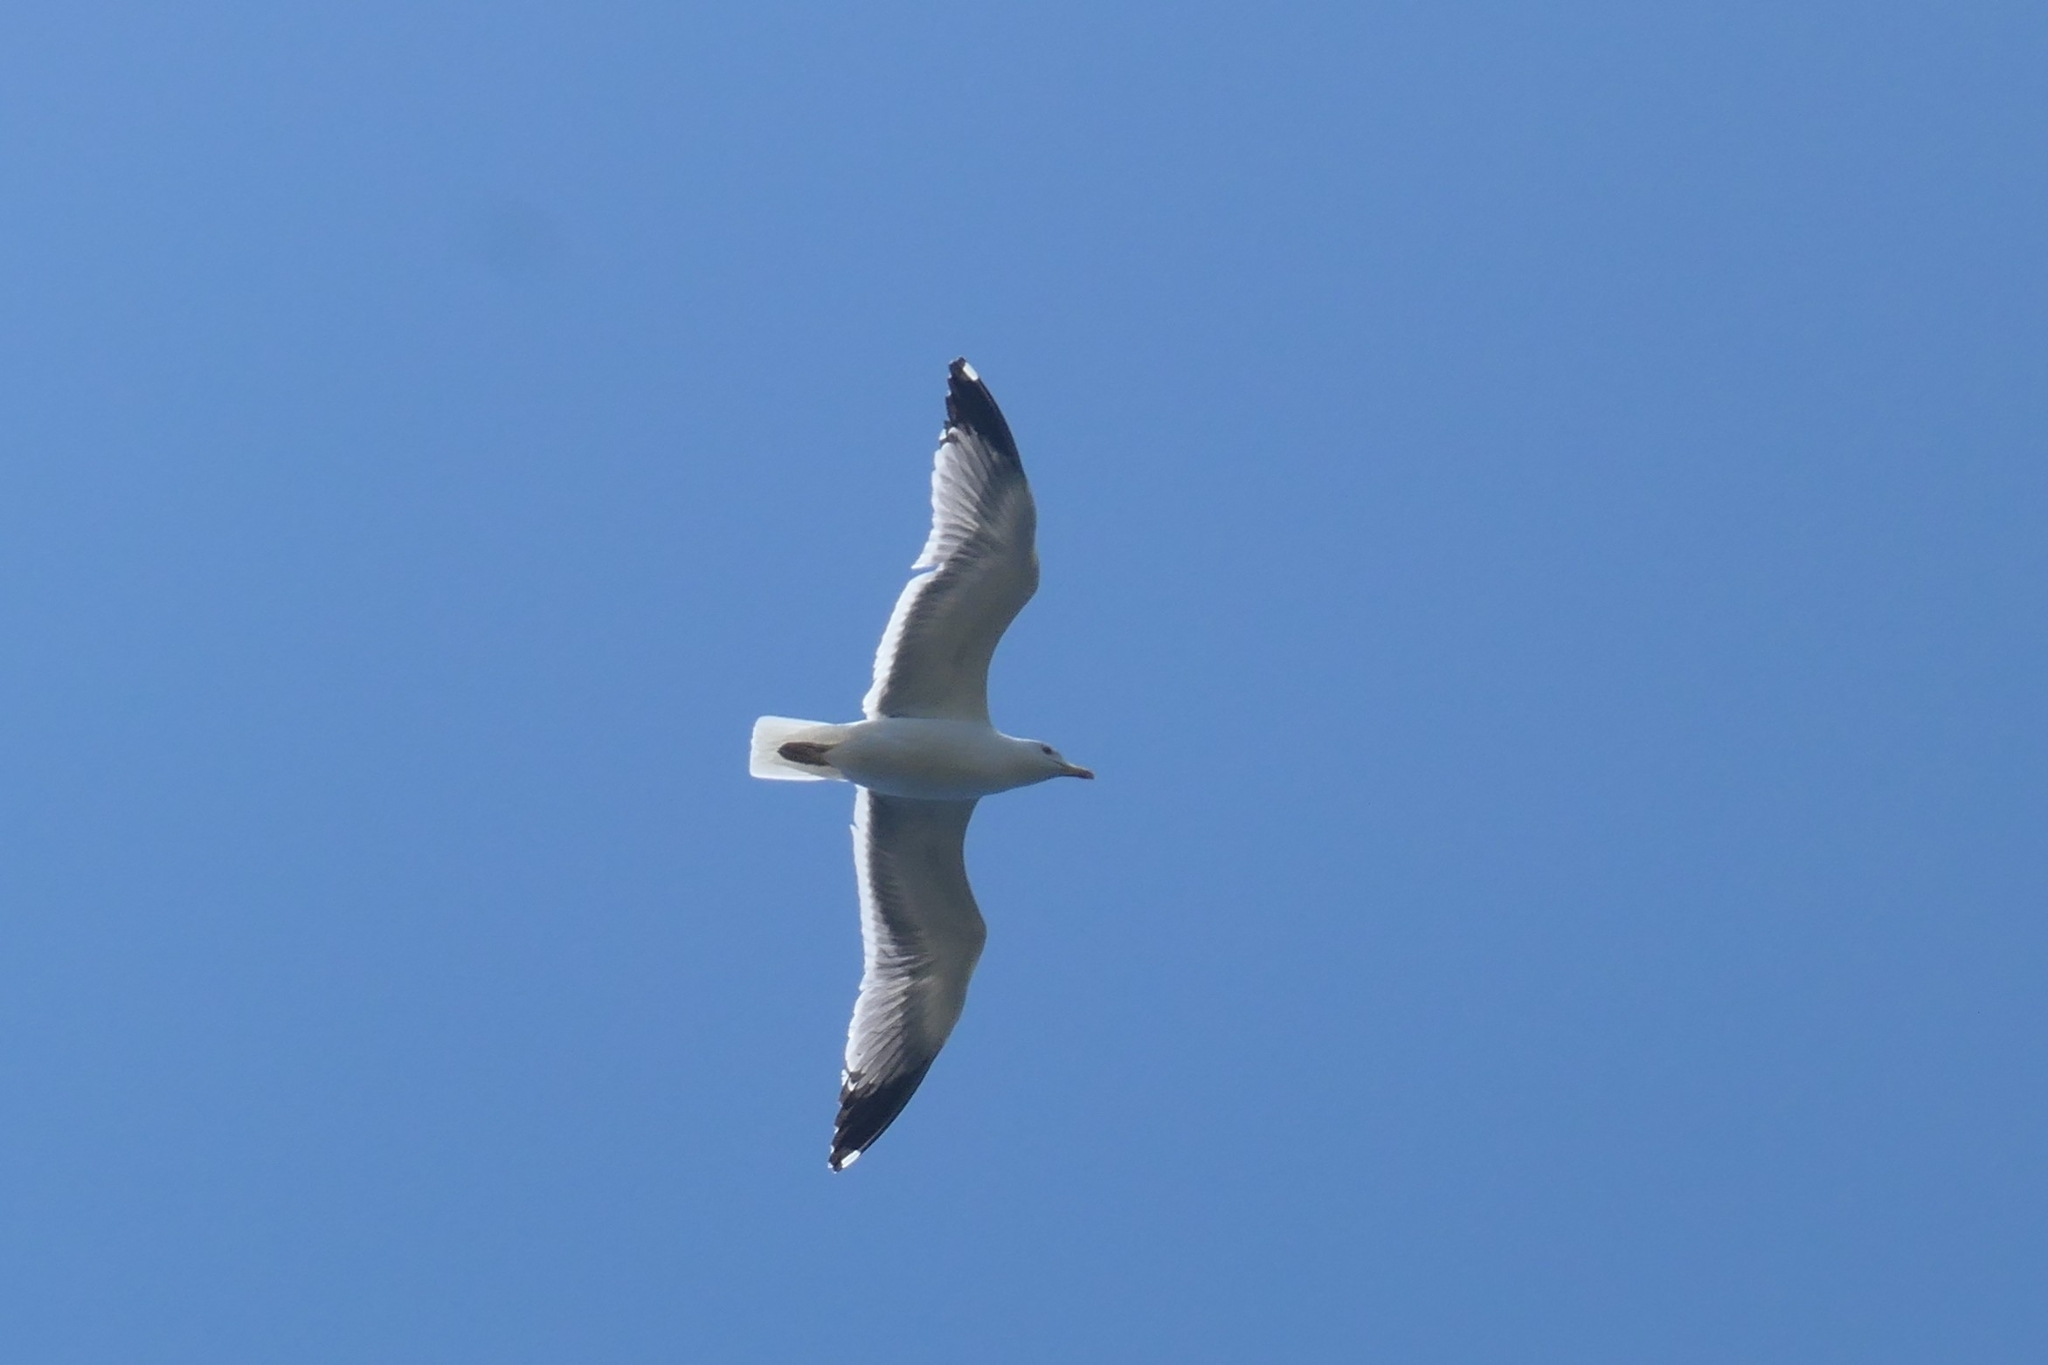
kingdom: Animalia
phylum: Chordata
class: Aves
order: Charadriiformes
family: Laridae
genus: Larus
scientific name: Larus michahellis
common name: Yellow-legged gull
